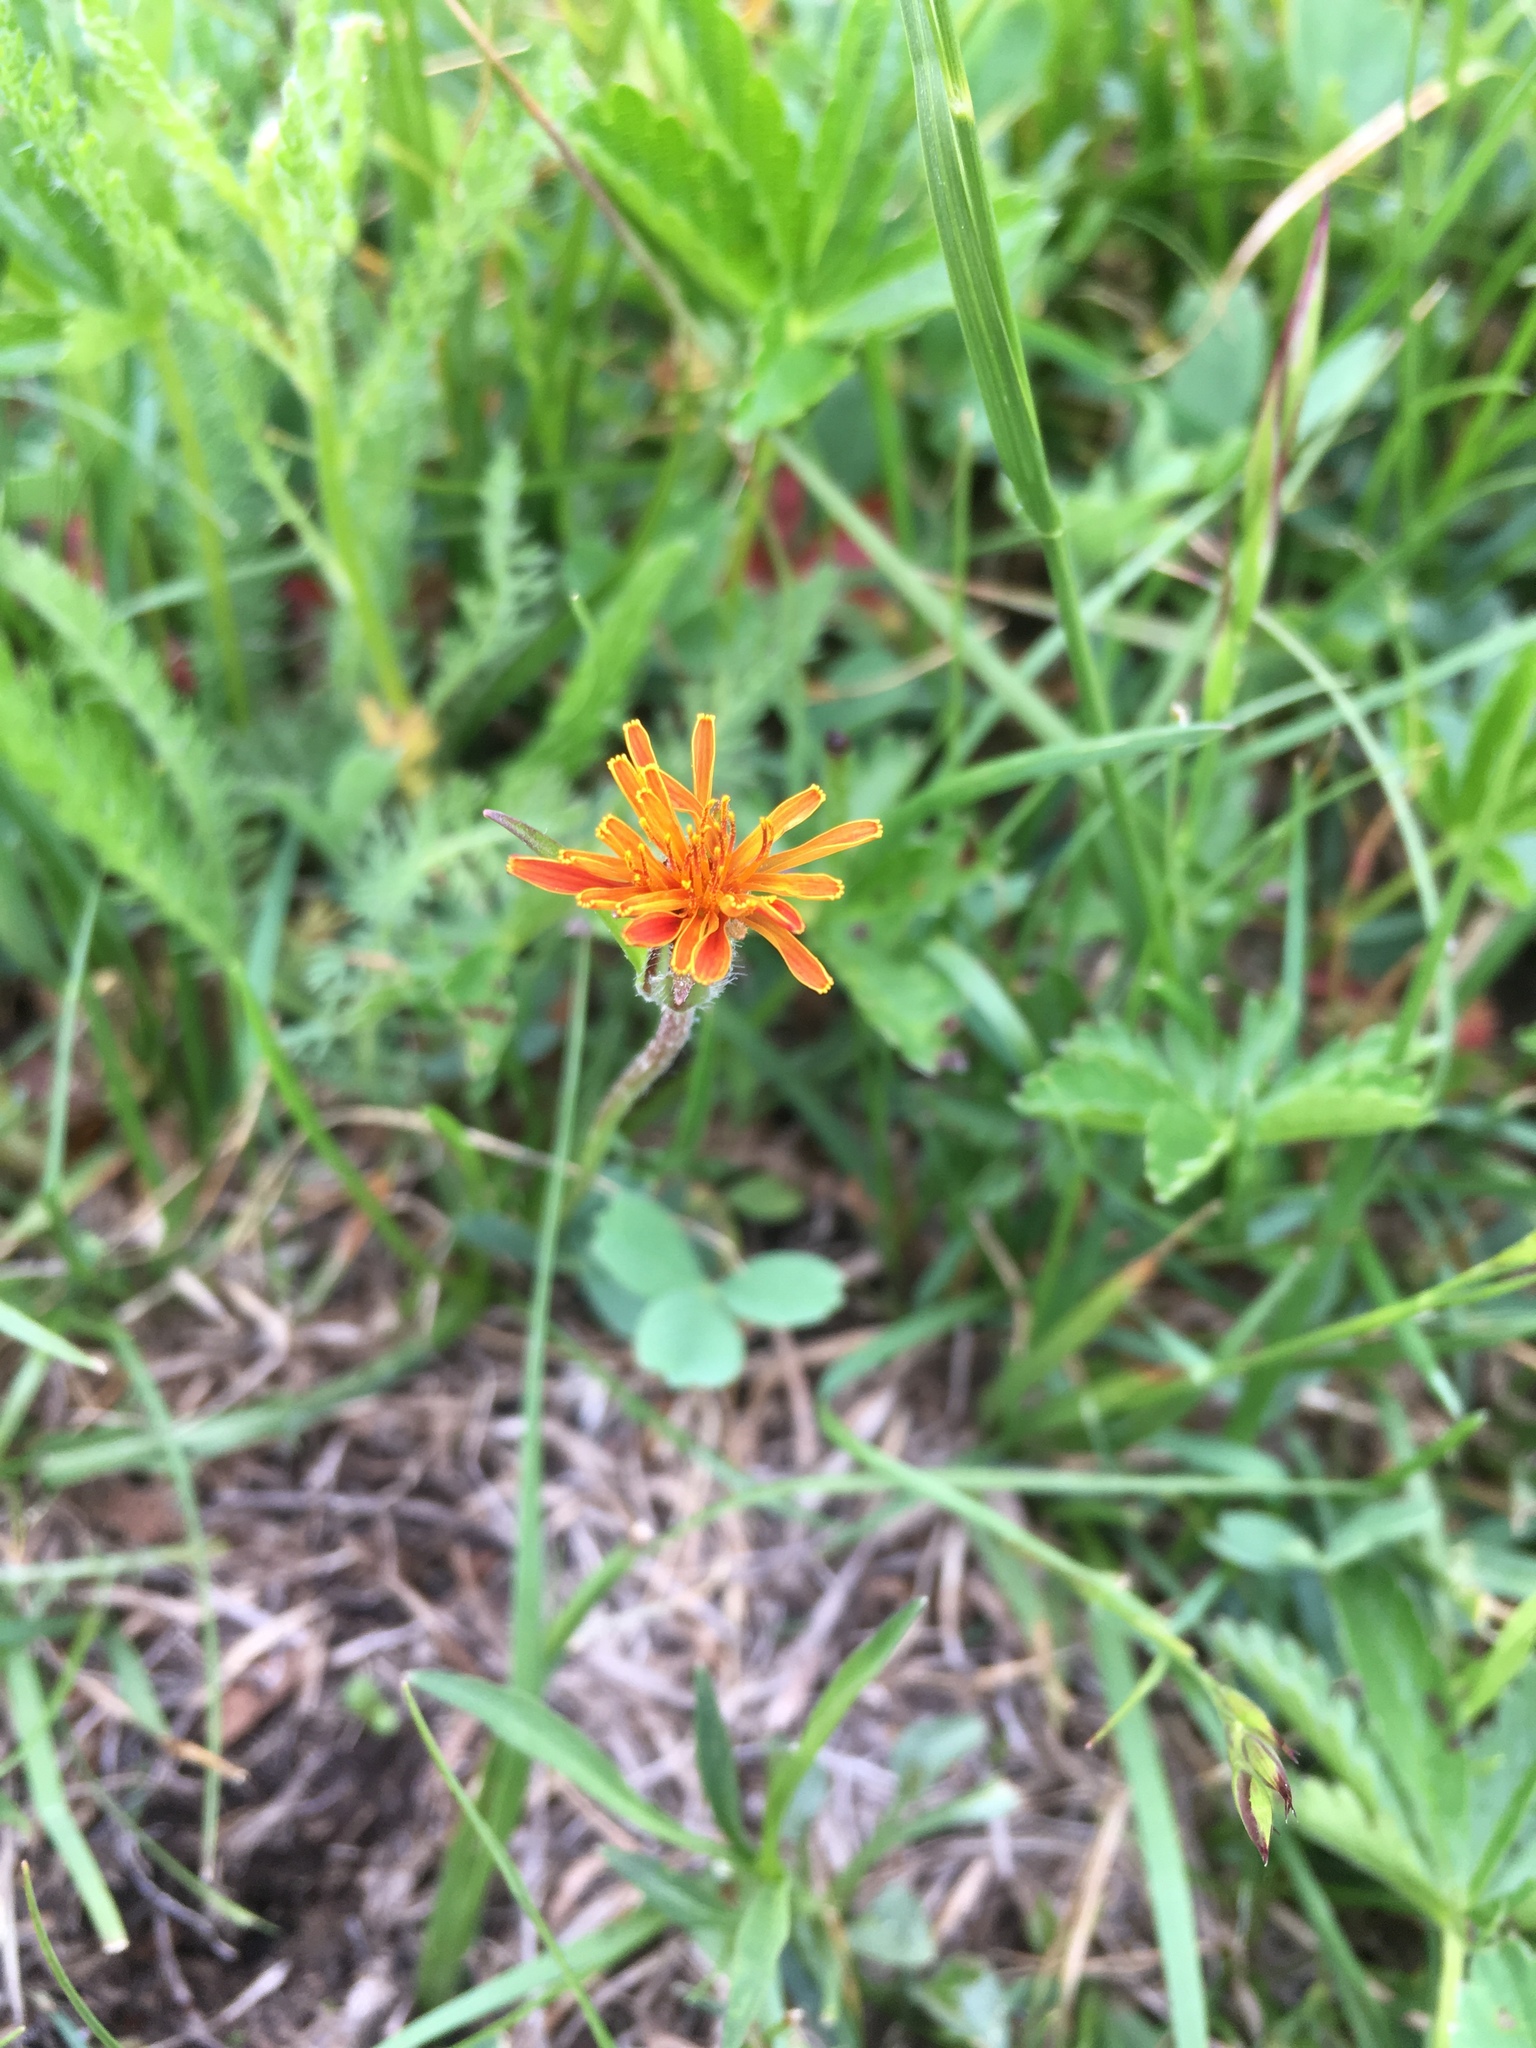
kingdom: Plantae
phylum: Tracheophyta
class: Magnoliopsida
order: Asterales
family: Asteraceae
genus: Agoseris
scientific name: Agoseris aurantiaca
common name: Mountain agoseris
